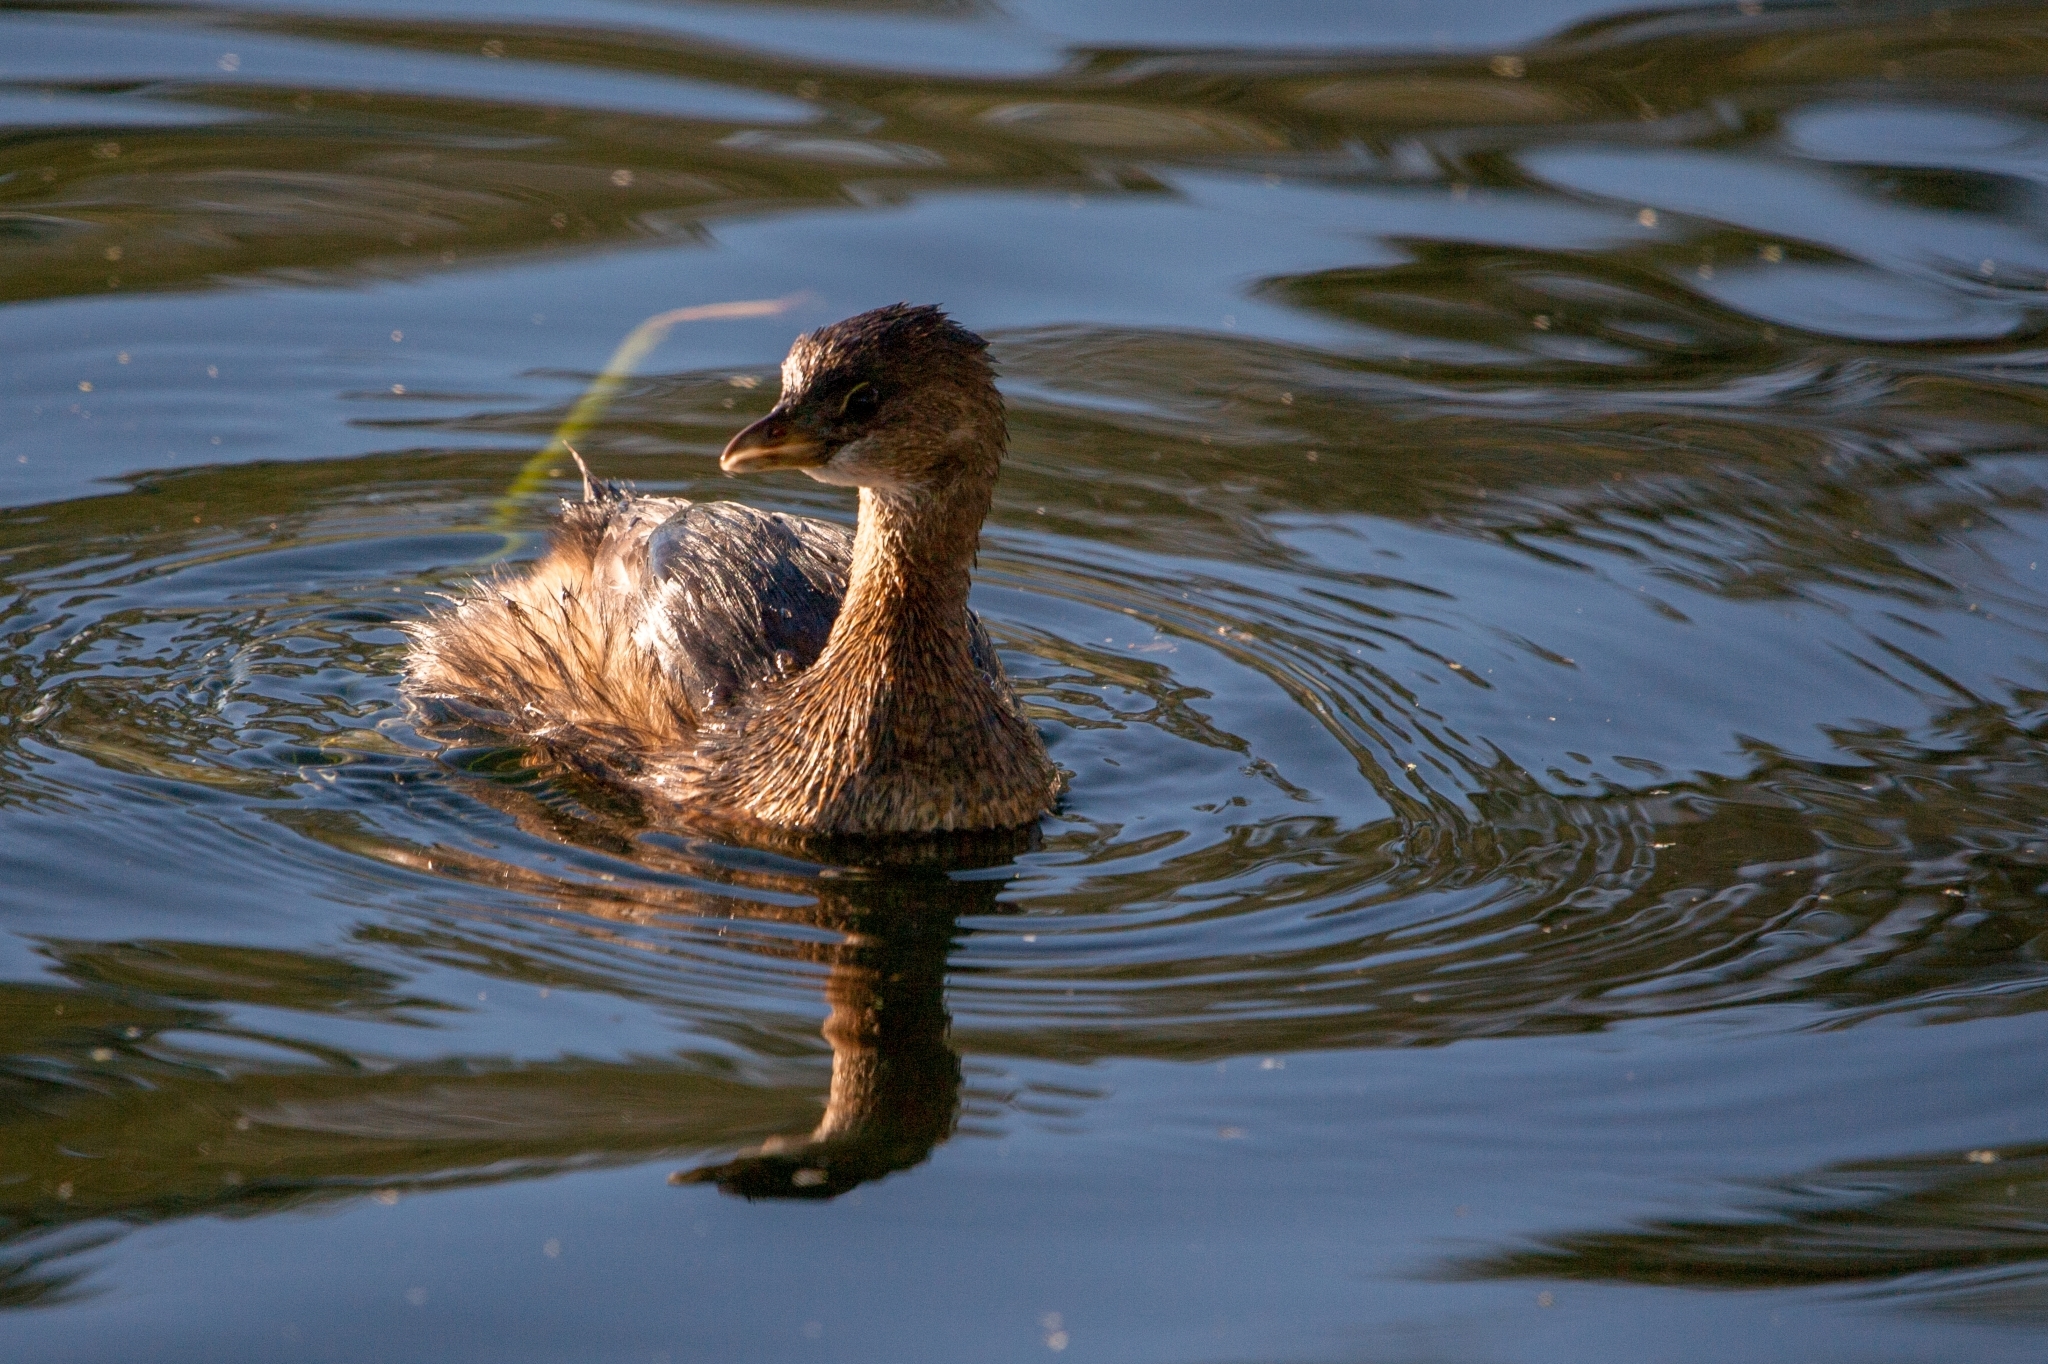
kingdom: Animalia
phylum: Chordata
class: Aves
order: Podicipediformes
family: Podicipedidae
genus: Podilymbus
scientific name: Podilymbus podiceps
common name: Pied-billed grebe
